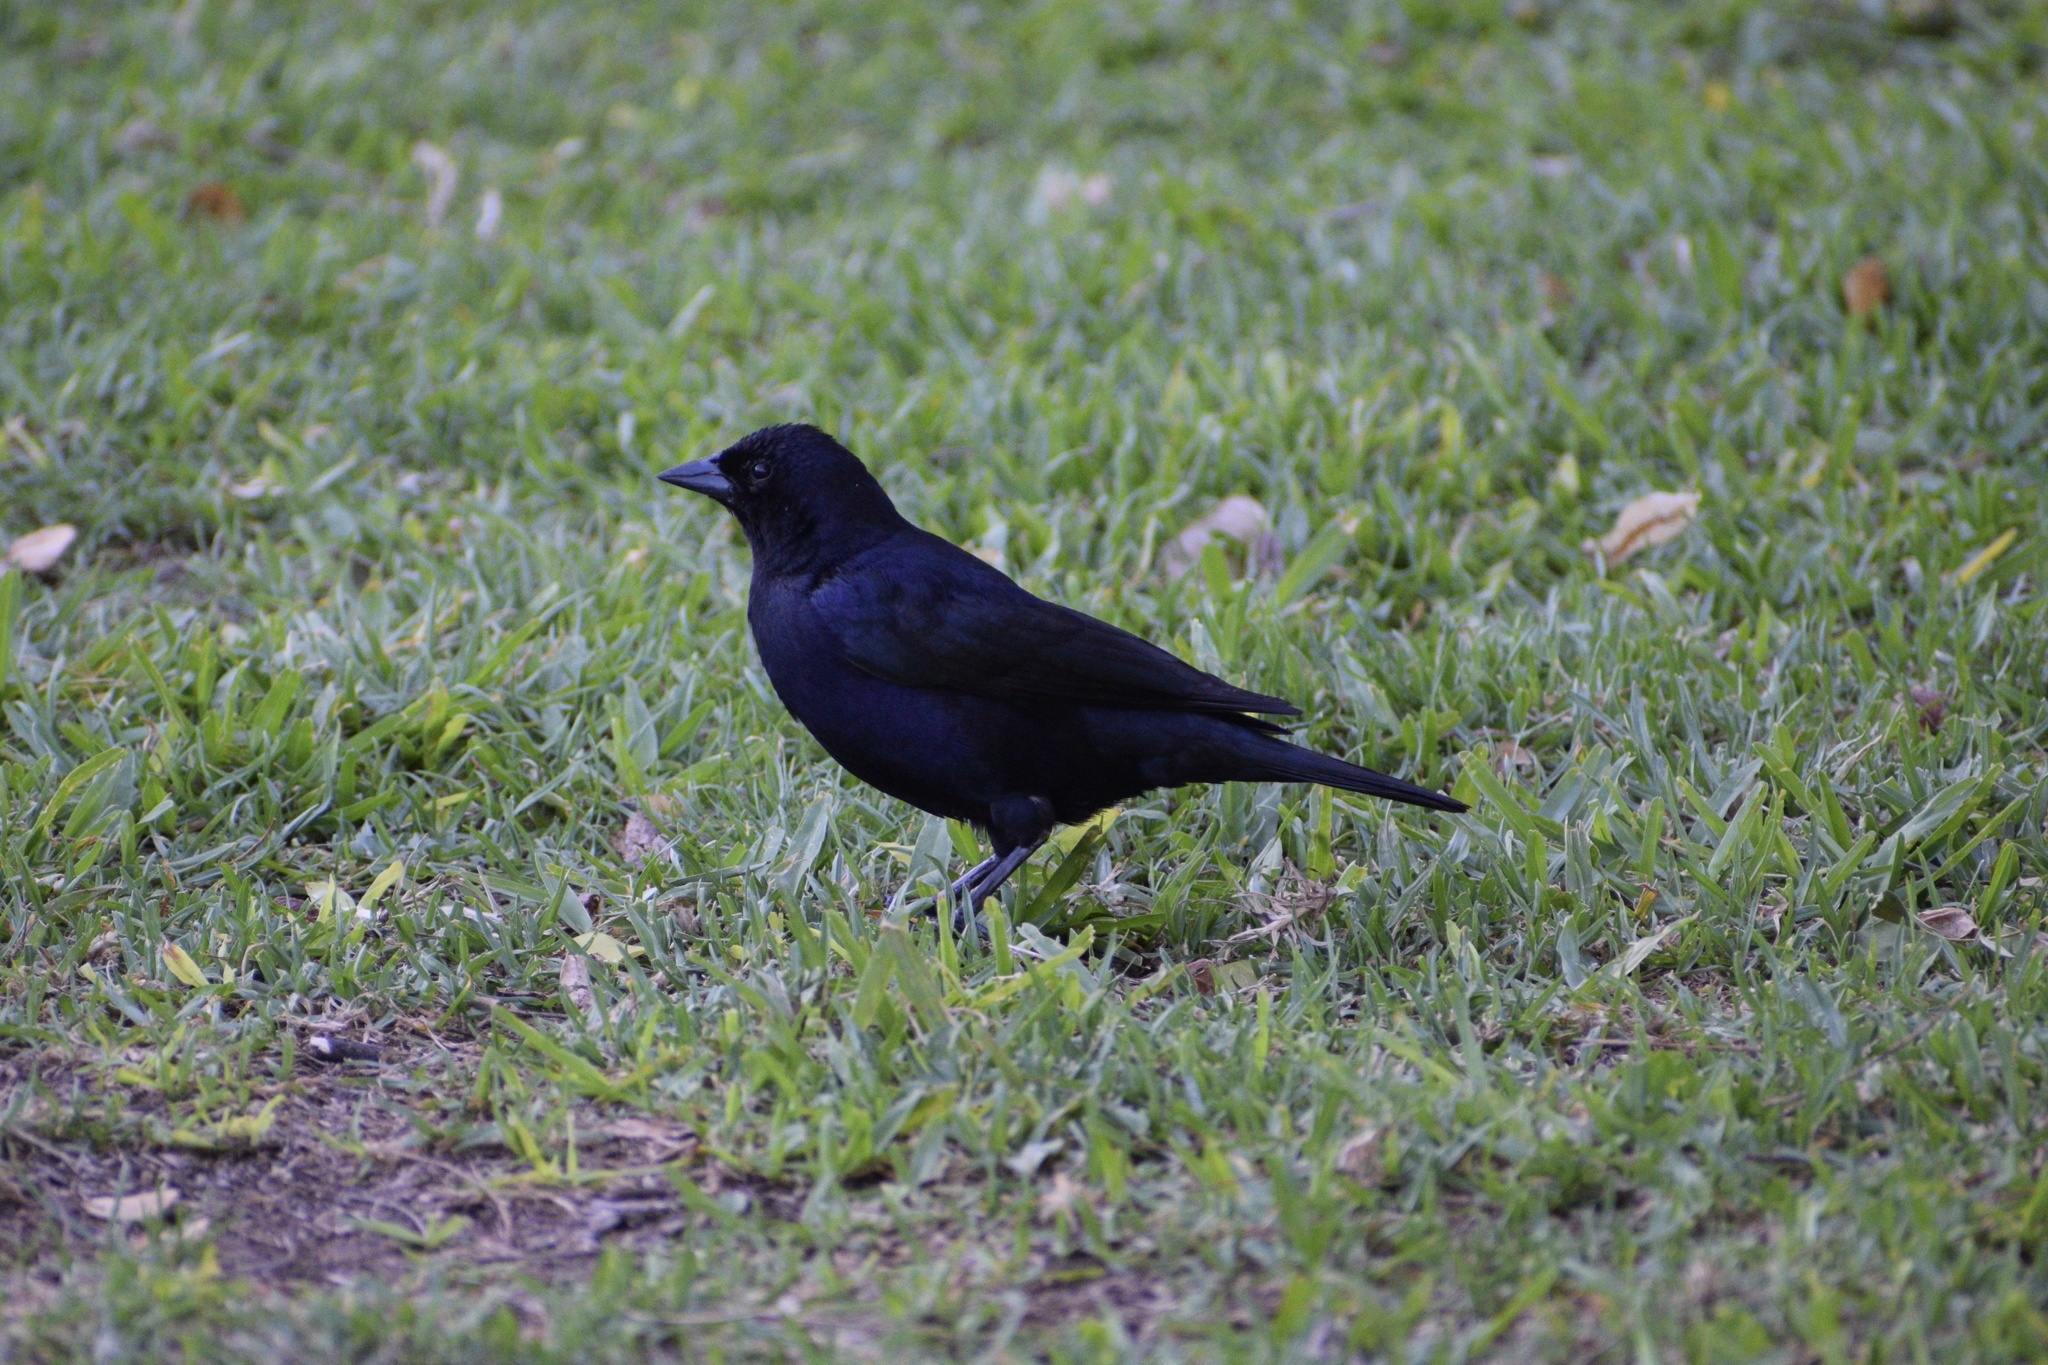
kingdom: Animalia
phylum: Chordata
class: Aves
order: Passeriformes
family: Icteridae
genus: Molothrus
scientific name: Molothrus bonariensis
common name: Shiny cowbird
